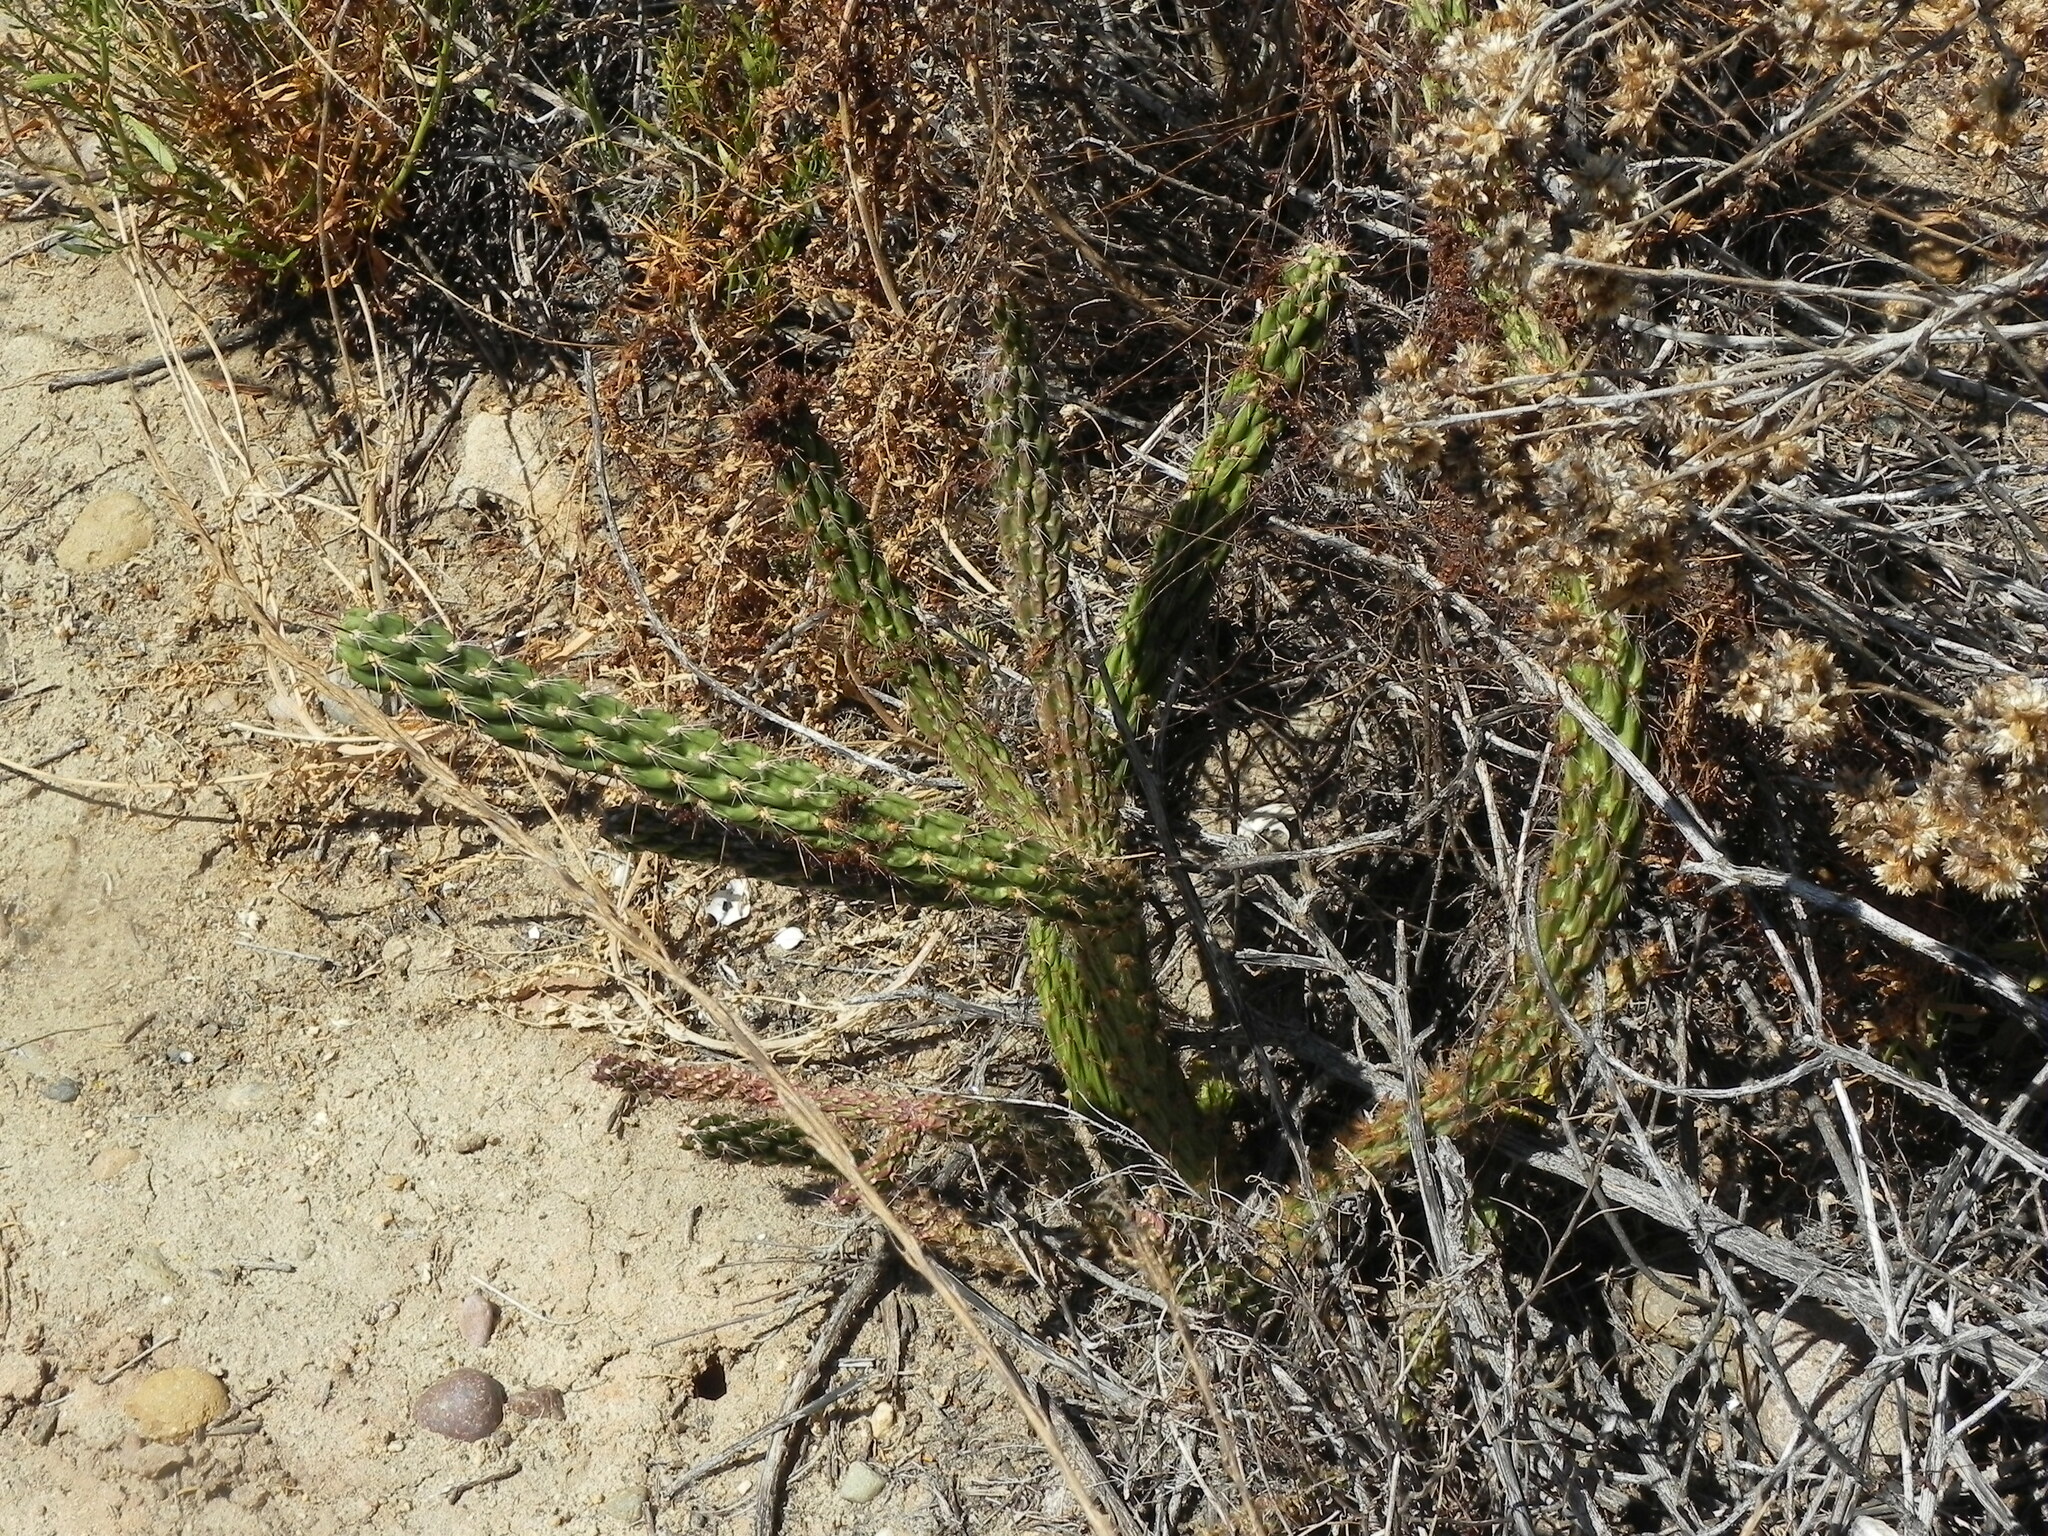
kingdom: Plantae
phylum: Tracheophyta
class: Magnoliopsida
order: Caryophyllales
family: Cactaceae
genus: Cylindropuntia
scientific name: Cylindropuntia californica
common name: Snake cholla
